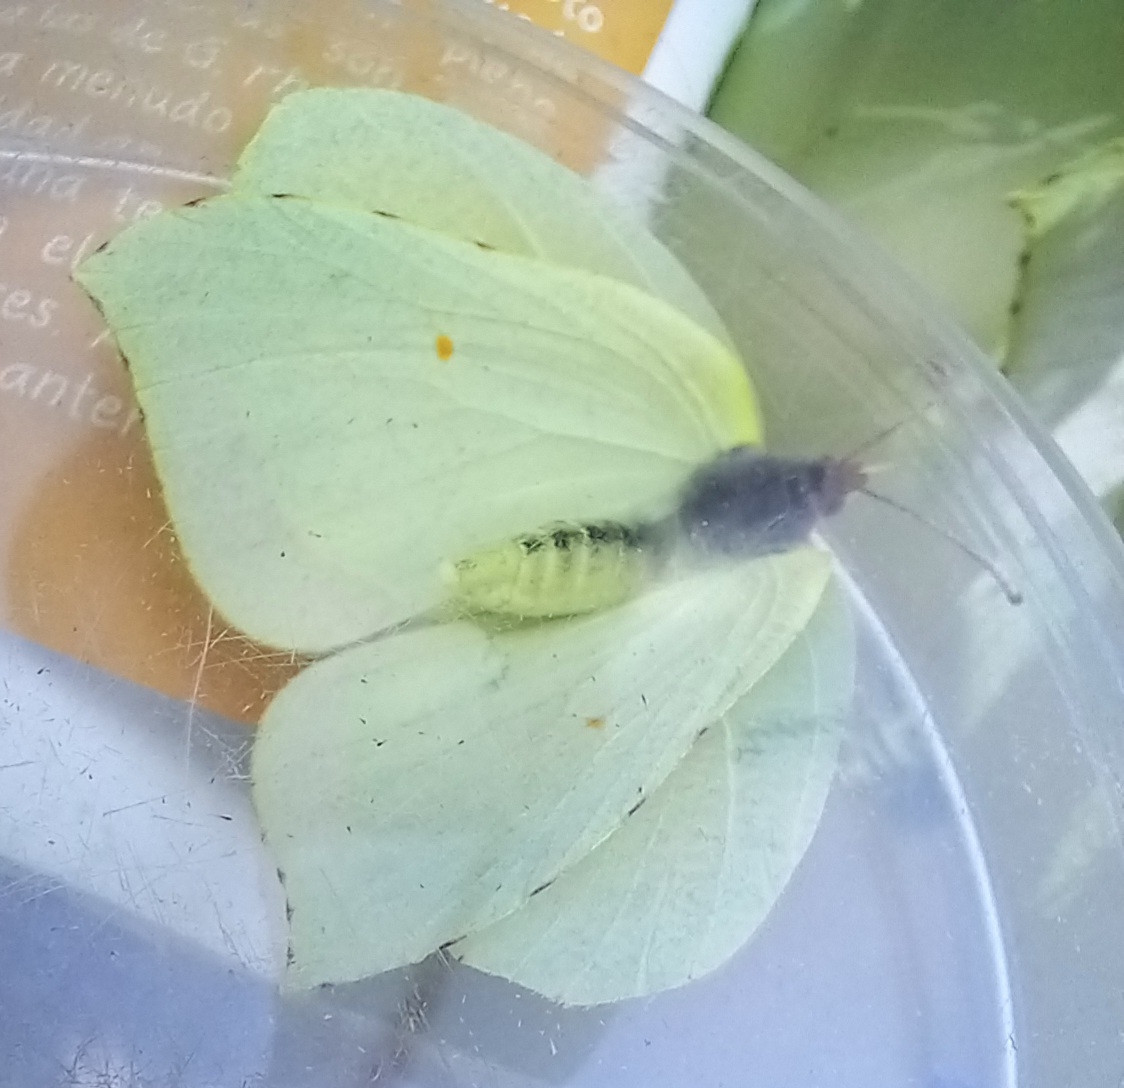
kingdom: Animalia
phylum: Arthropoda
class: Insecta
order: Lepidoptera
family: Pieridae
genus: Gonepteryx
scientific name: Gonepteryx rhamni
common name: Brimstone
